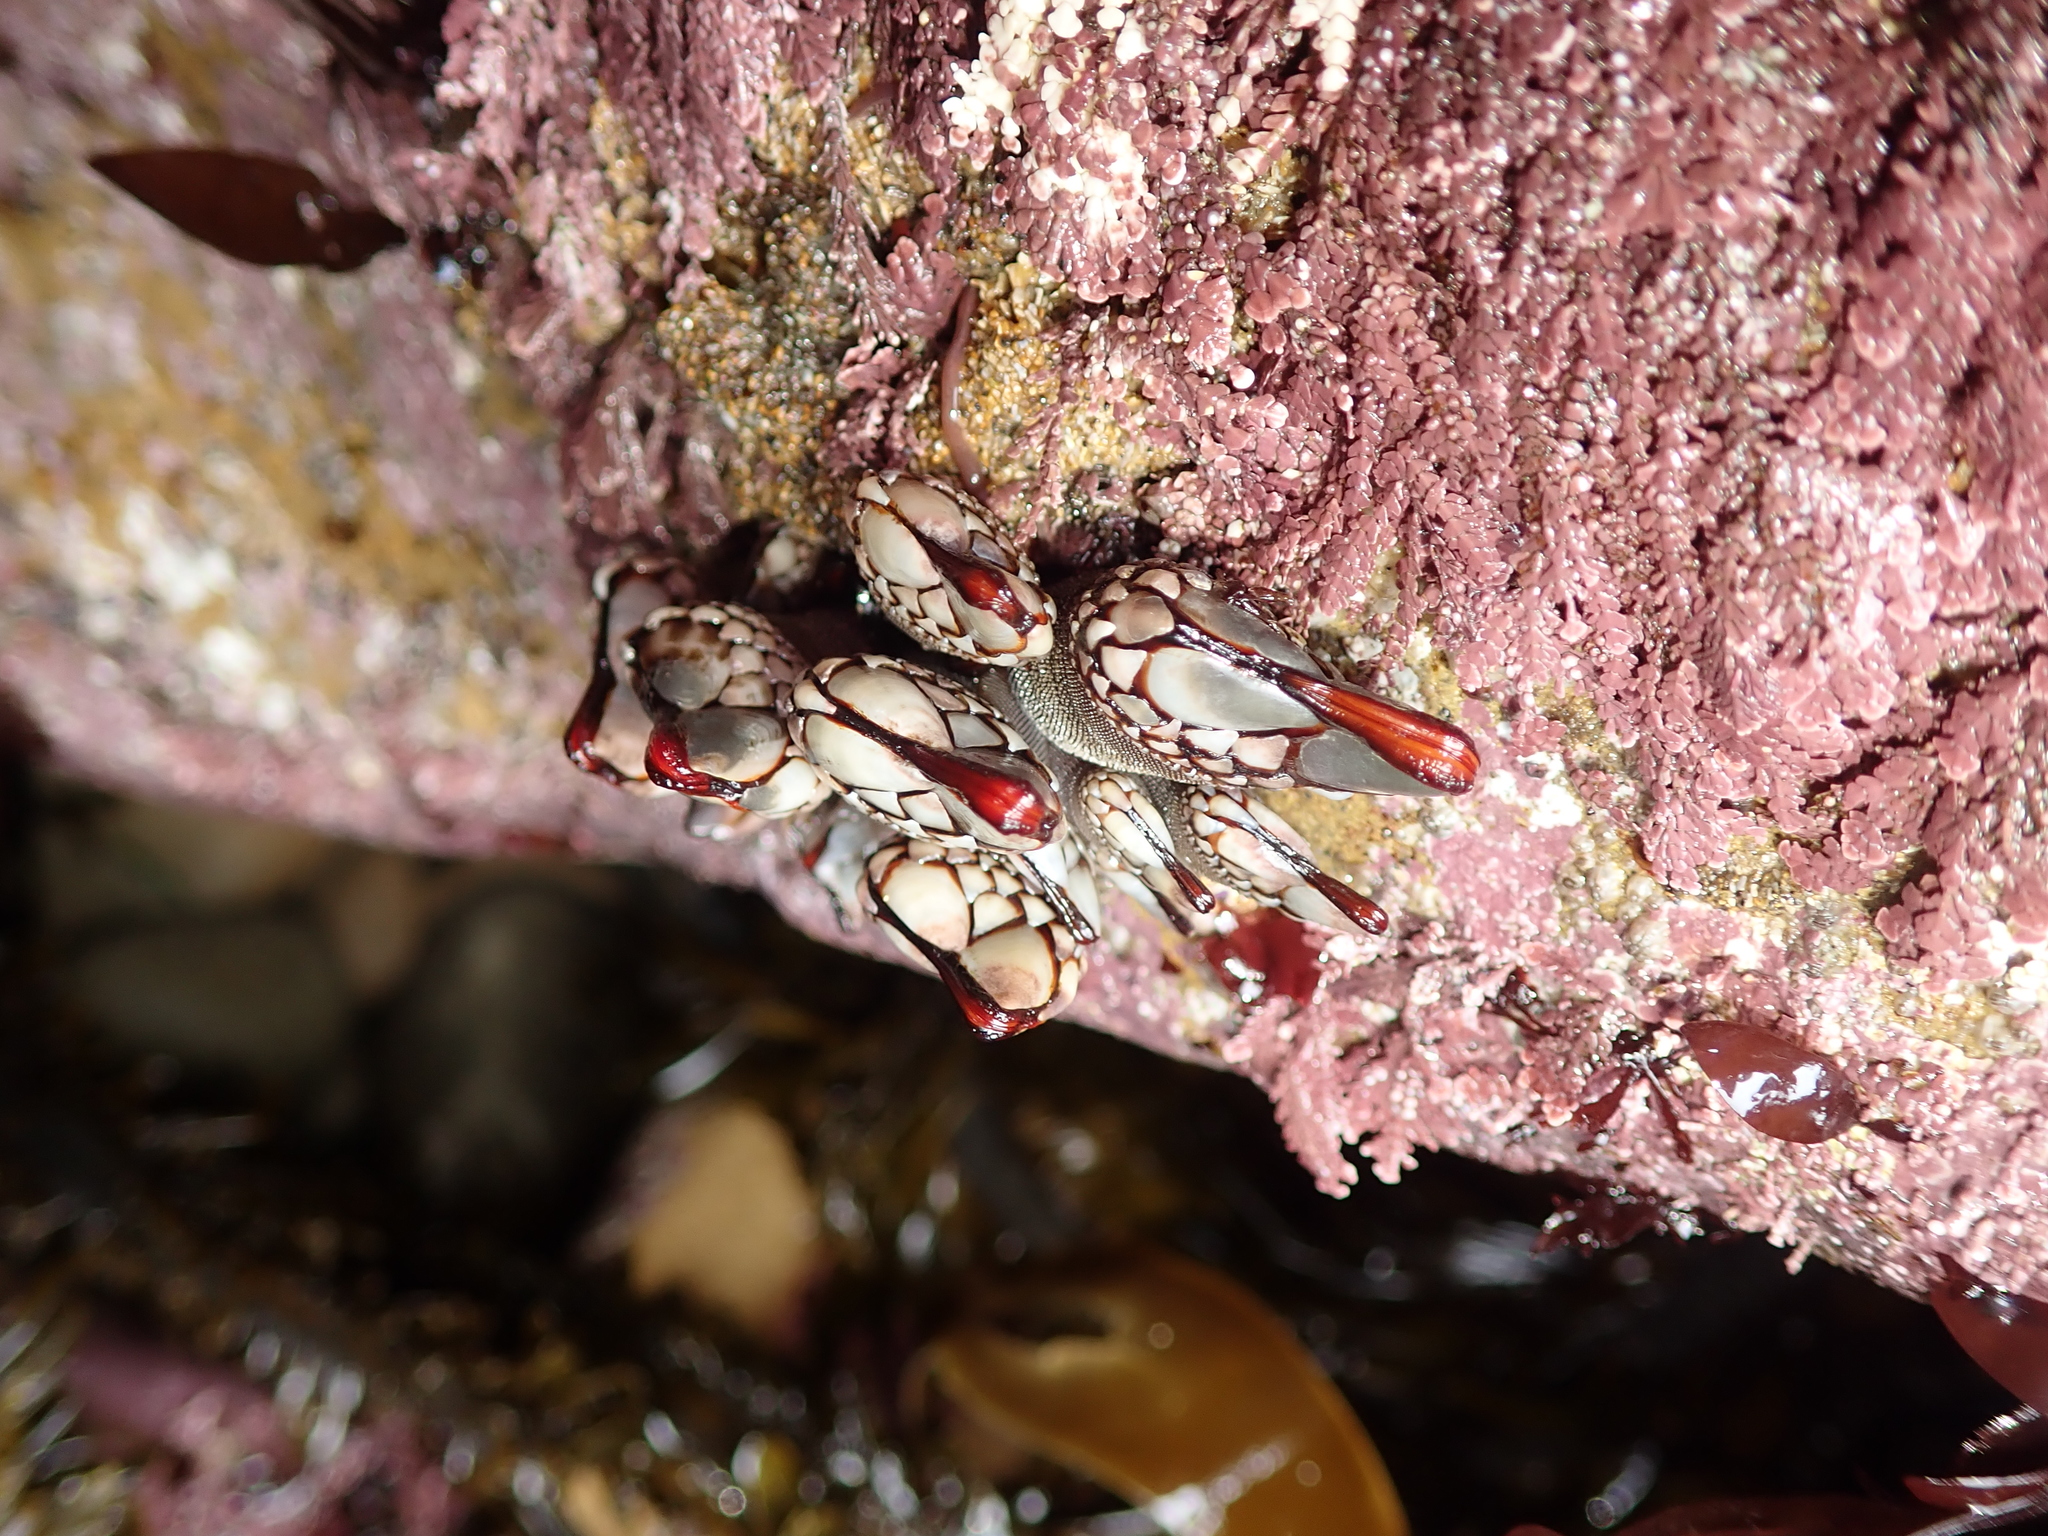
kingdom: Animalia
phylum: Arthropoda
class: Maxillopoda
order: Pedunculata
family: Pollicipedidae
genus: Pollicipes
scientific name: Pollicipes polymerus
